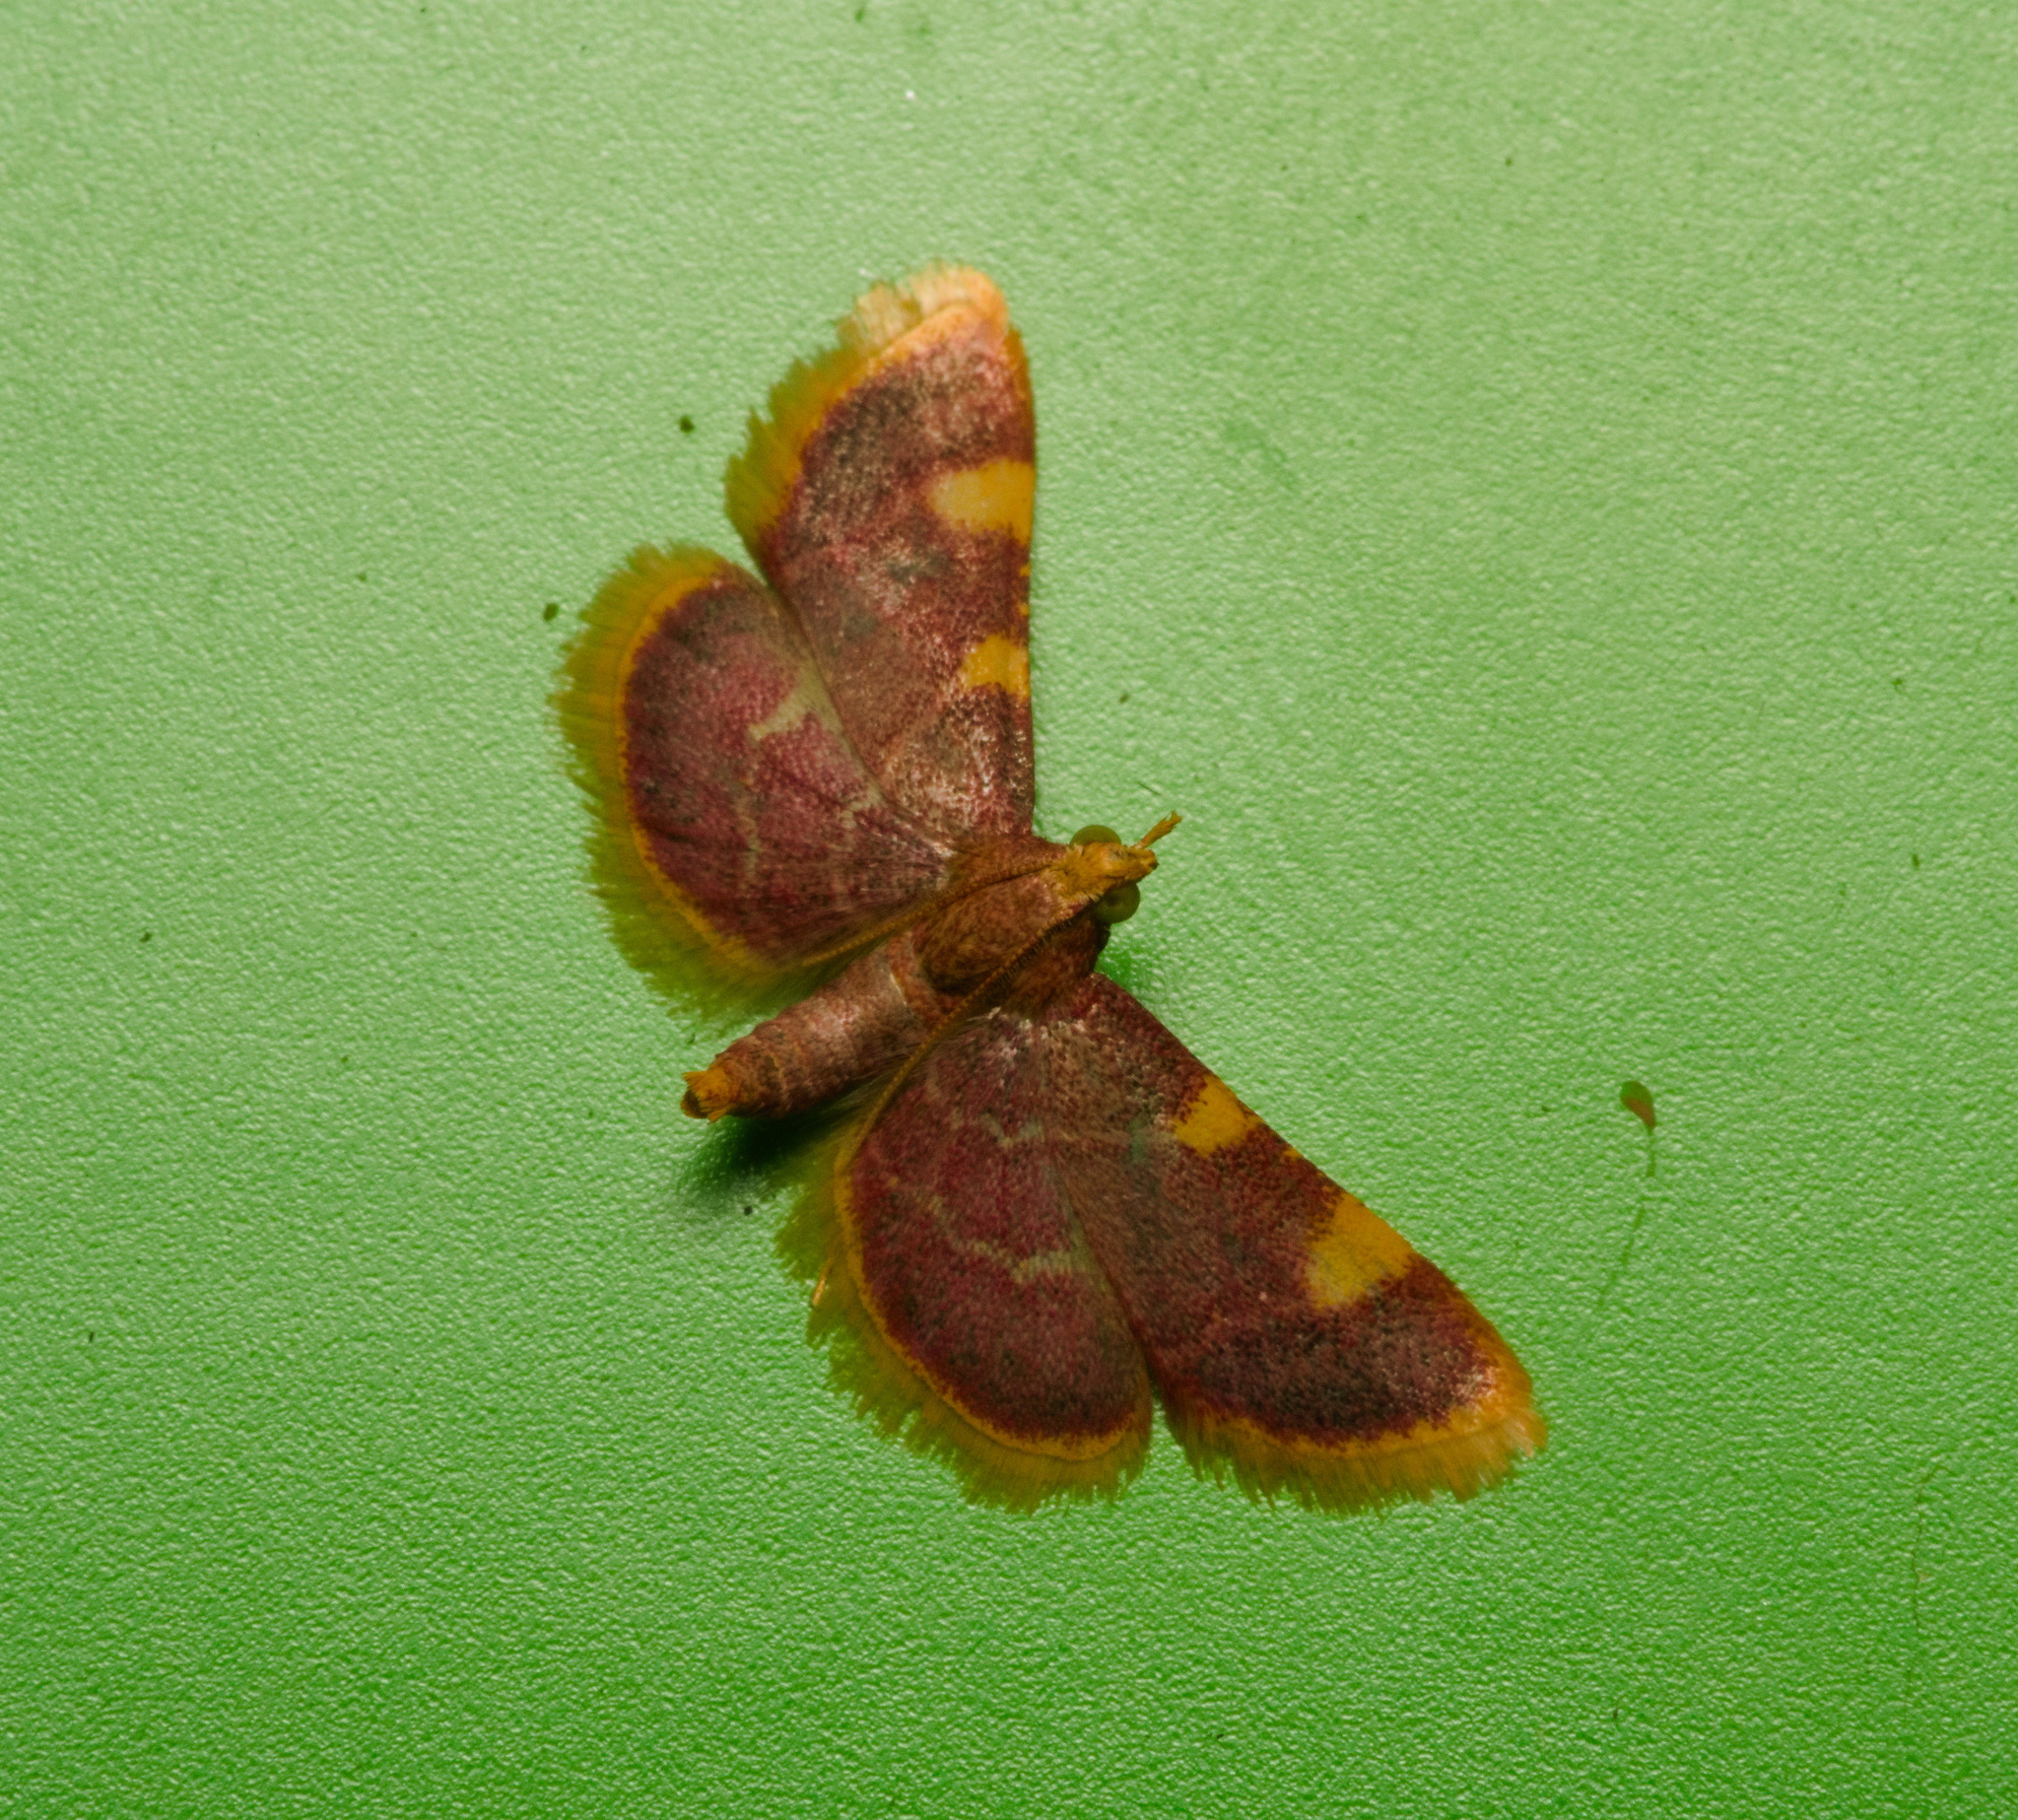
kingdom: Animalia
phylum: Arthropoda
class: Insecta
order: Lepidoptera
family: Pyralidae
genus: Hypsopygia
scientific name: Hypsopygia costalis
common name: Gold triangle
